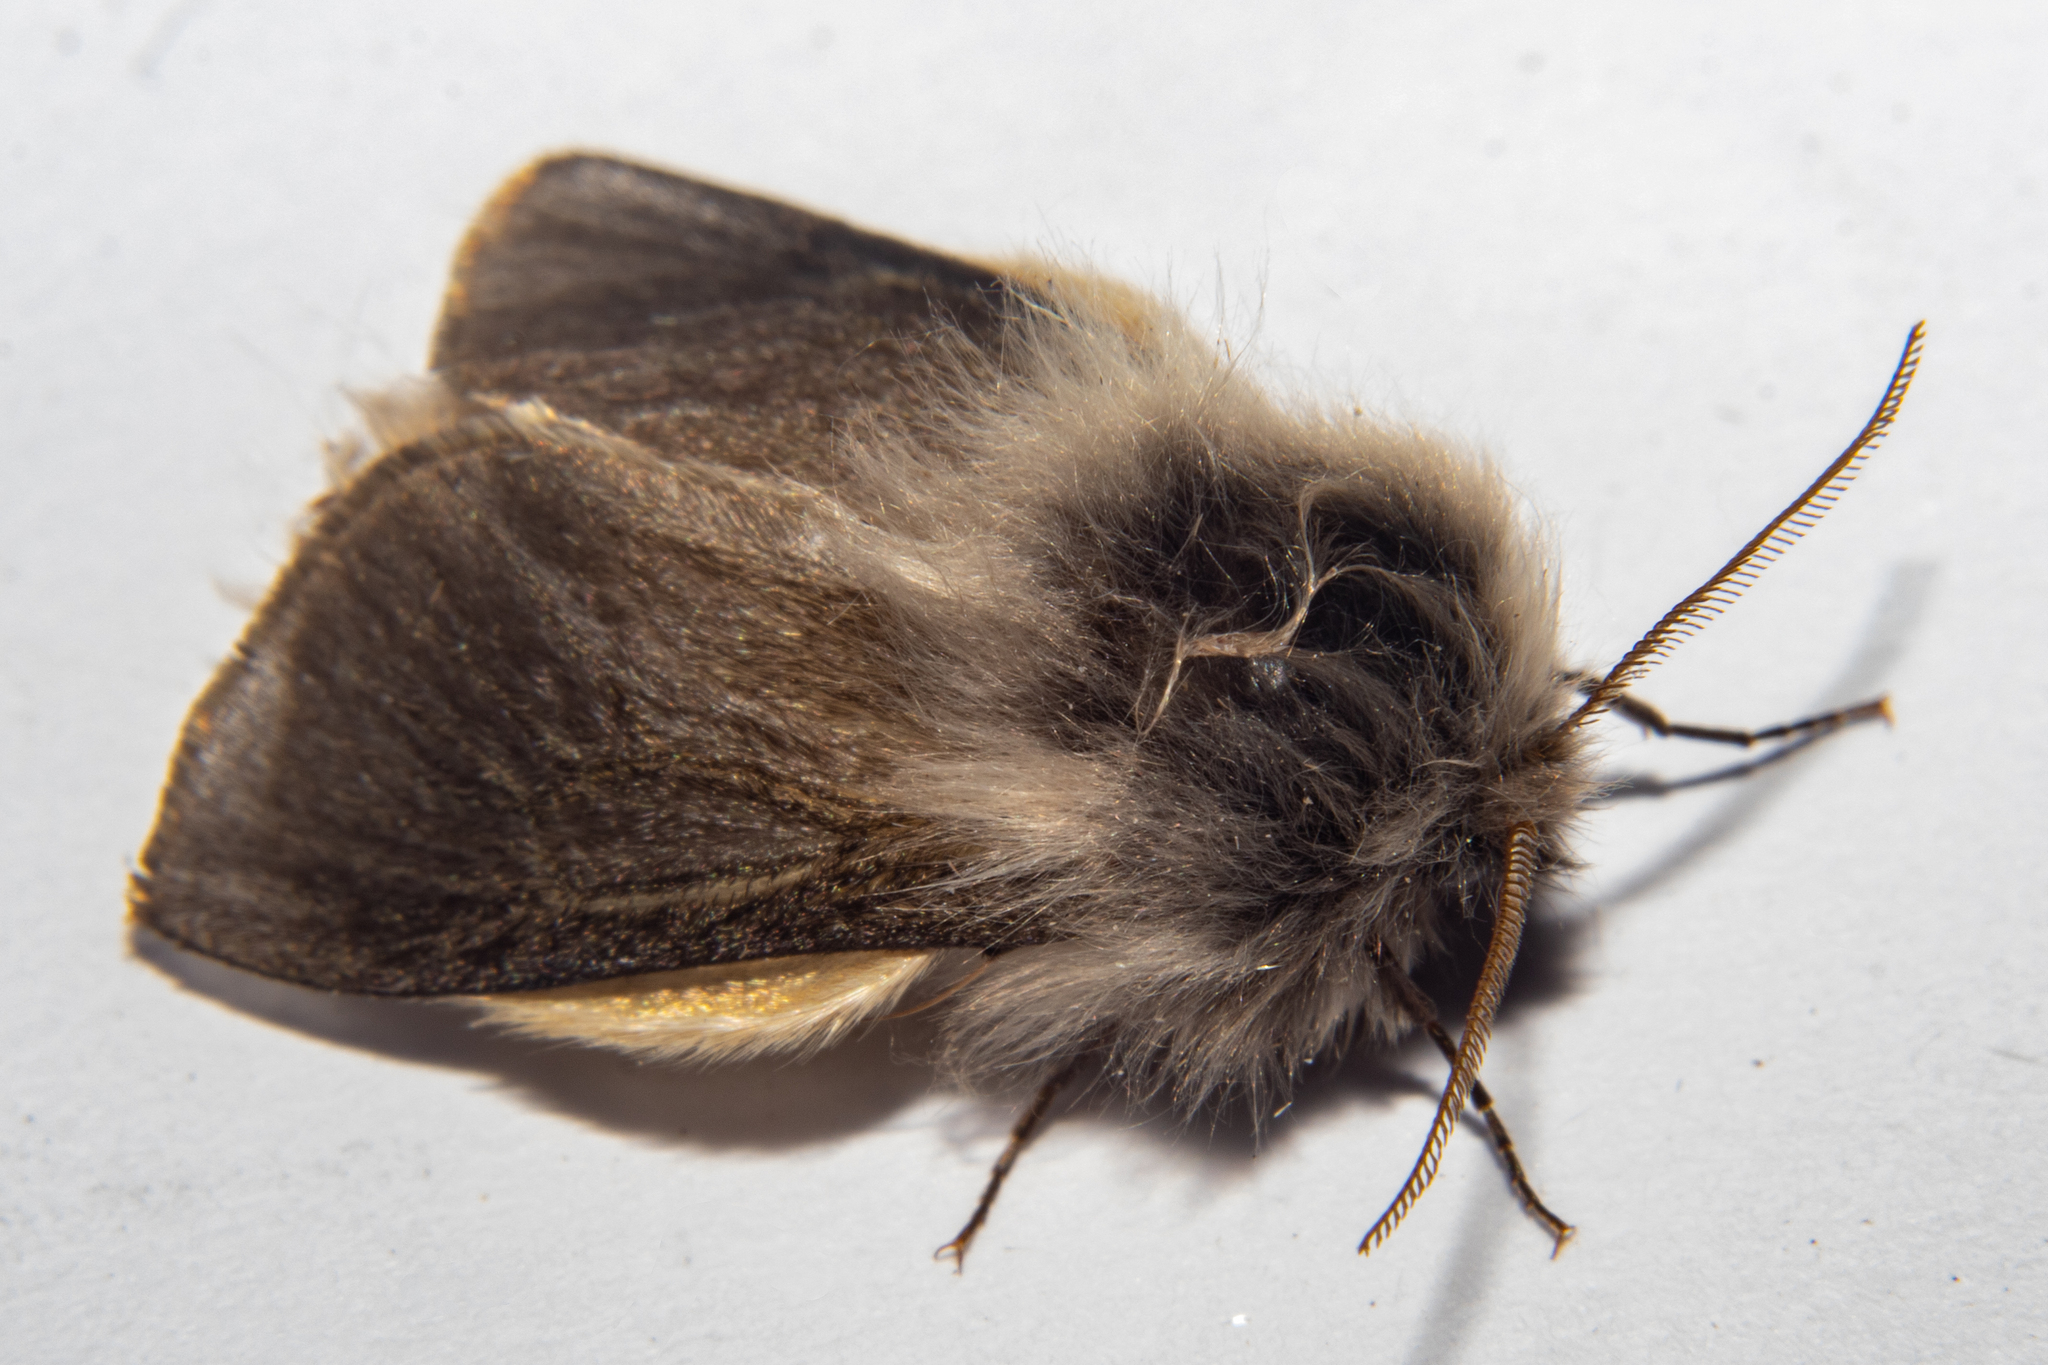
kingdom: Animalia
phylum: Arthropoda
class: Insecta
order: Lepidoptera
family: Psychidae
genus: Orophora
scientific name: Orophora unicolor
